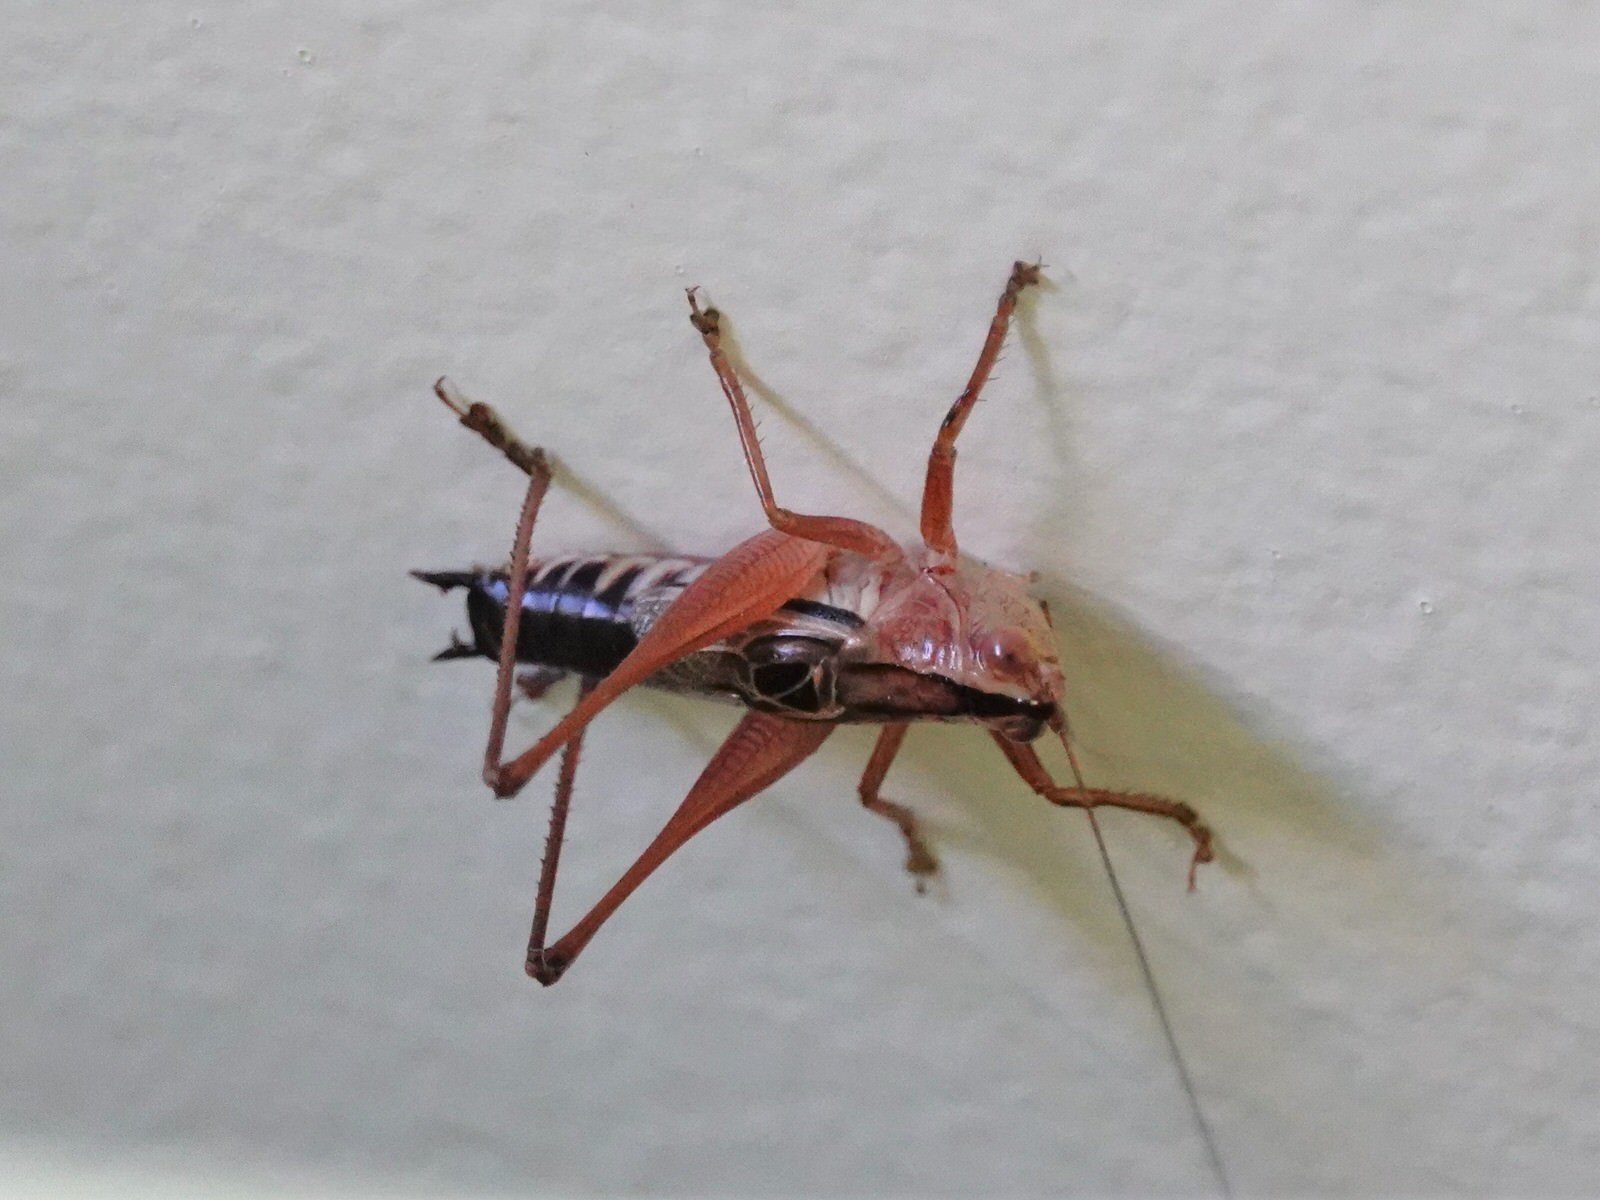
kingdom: Animalia
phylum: Arthropoda
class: Insecta
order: Orthoptera
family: Tettigoniidae
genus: Conocephalus
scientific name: Conocephalus semivittatus
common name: Blackish meadow katydid
